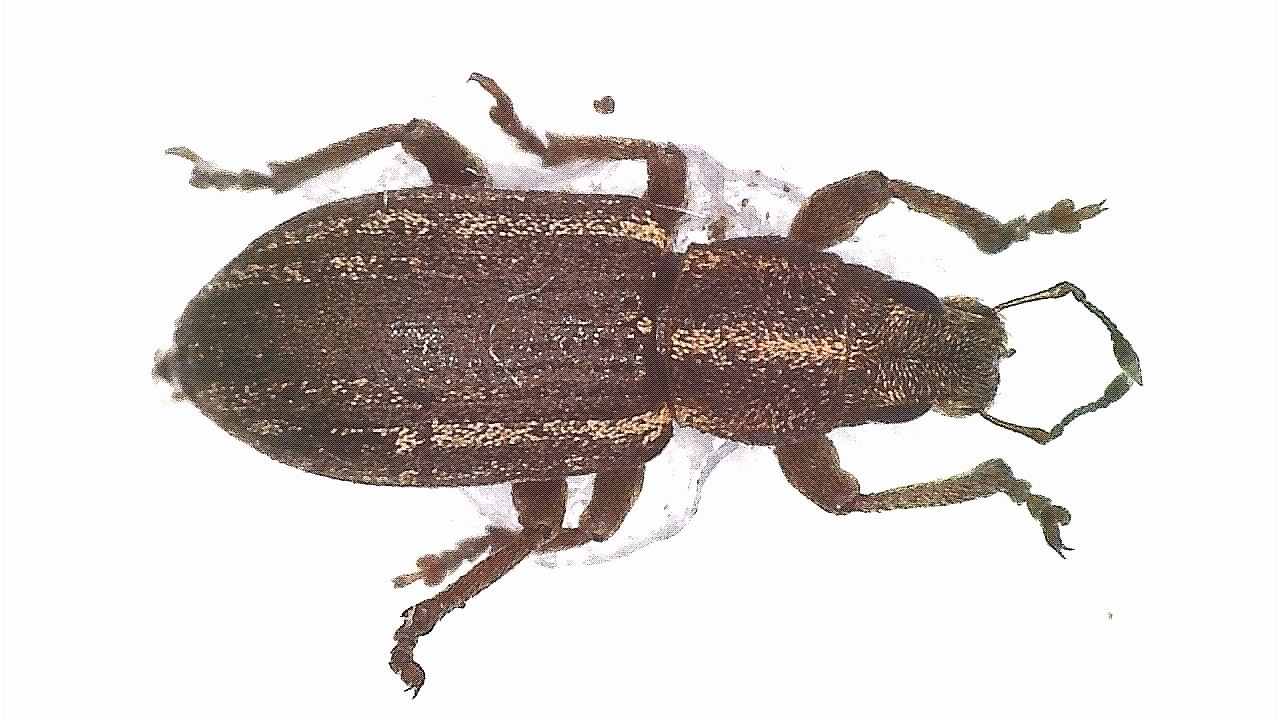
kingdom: Animalia
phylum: Arthropoda
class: Insecta
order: Coleoptera
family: Curculionidae
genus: Sitona
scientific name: Sitona inops
